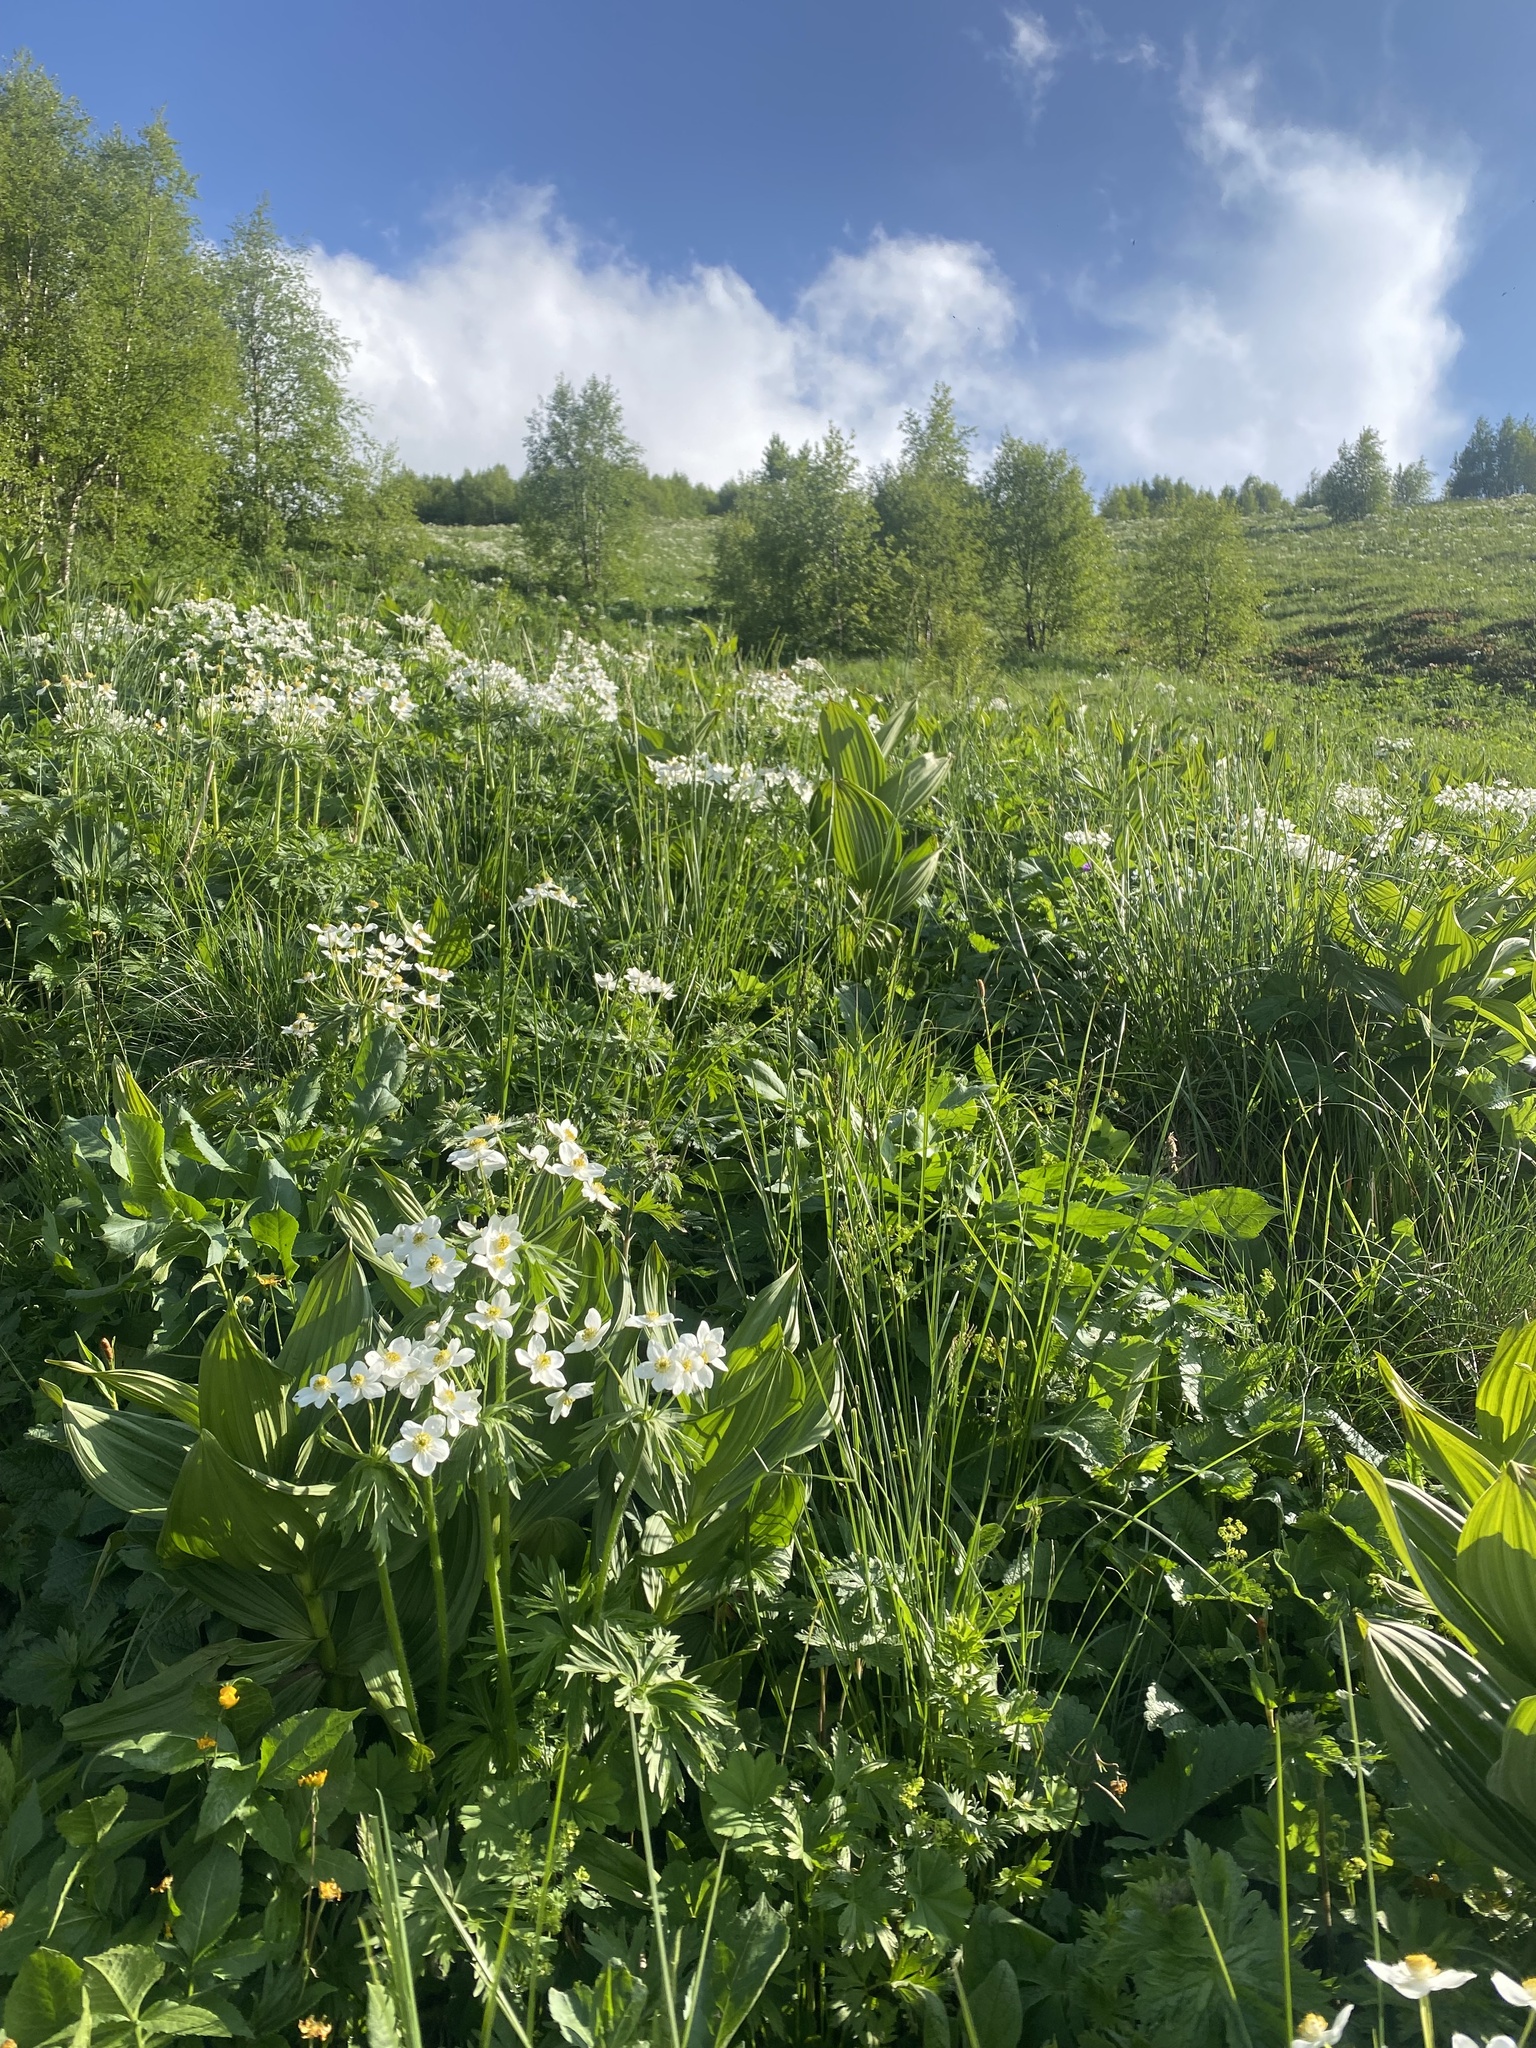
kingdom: Plantae
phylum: Tracheophyta
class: Magnoliopsida
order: Ranunculales
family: Ranunculaceae
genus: Anemonastrum
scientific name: Anemonastrum narcissiflorum
